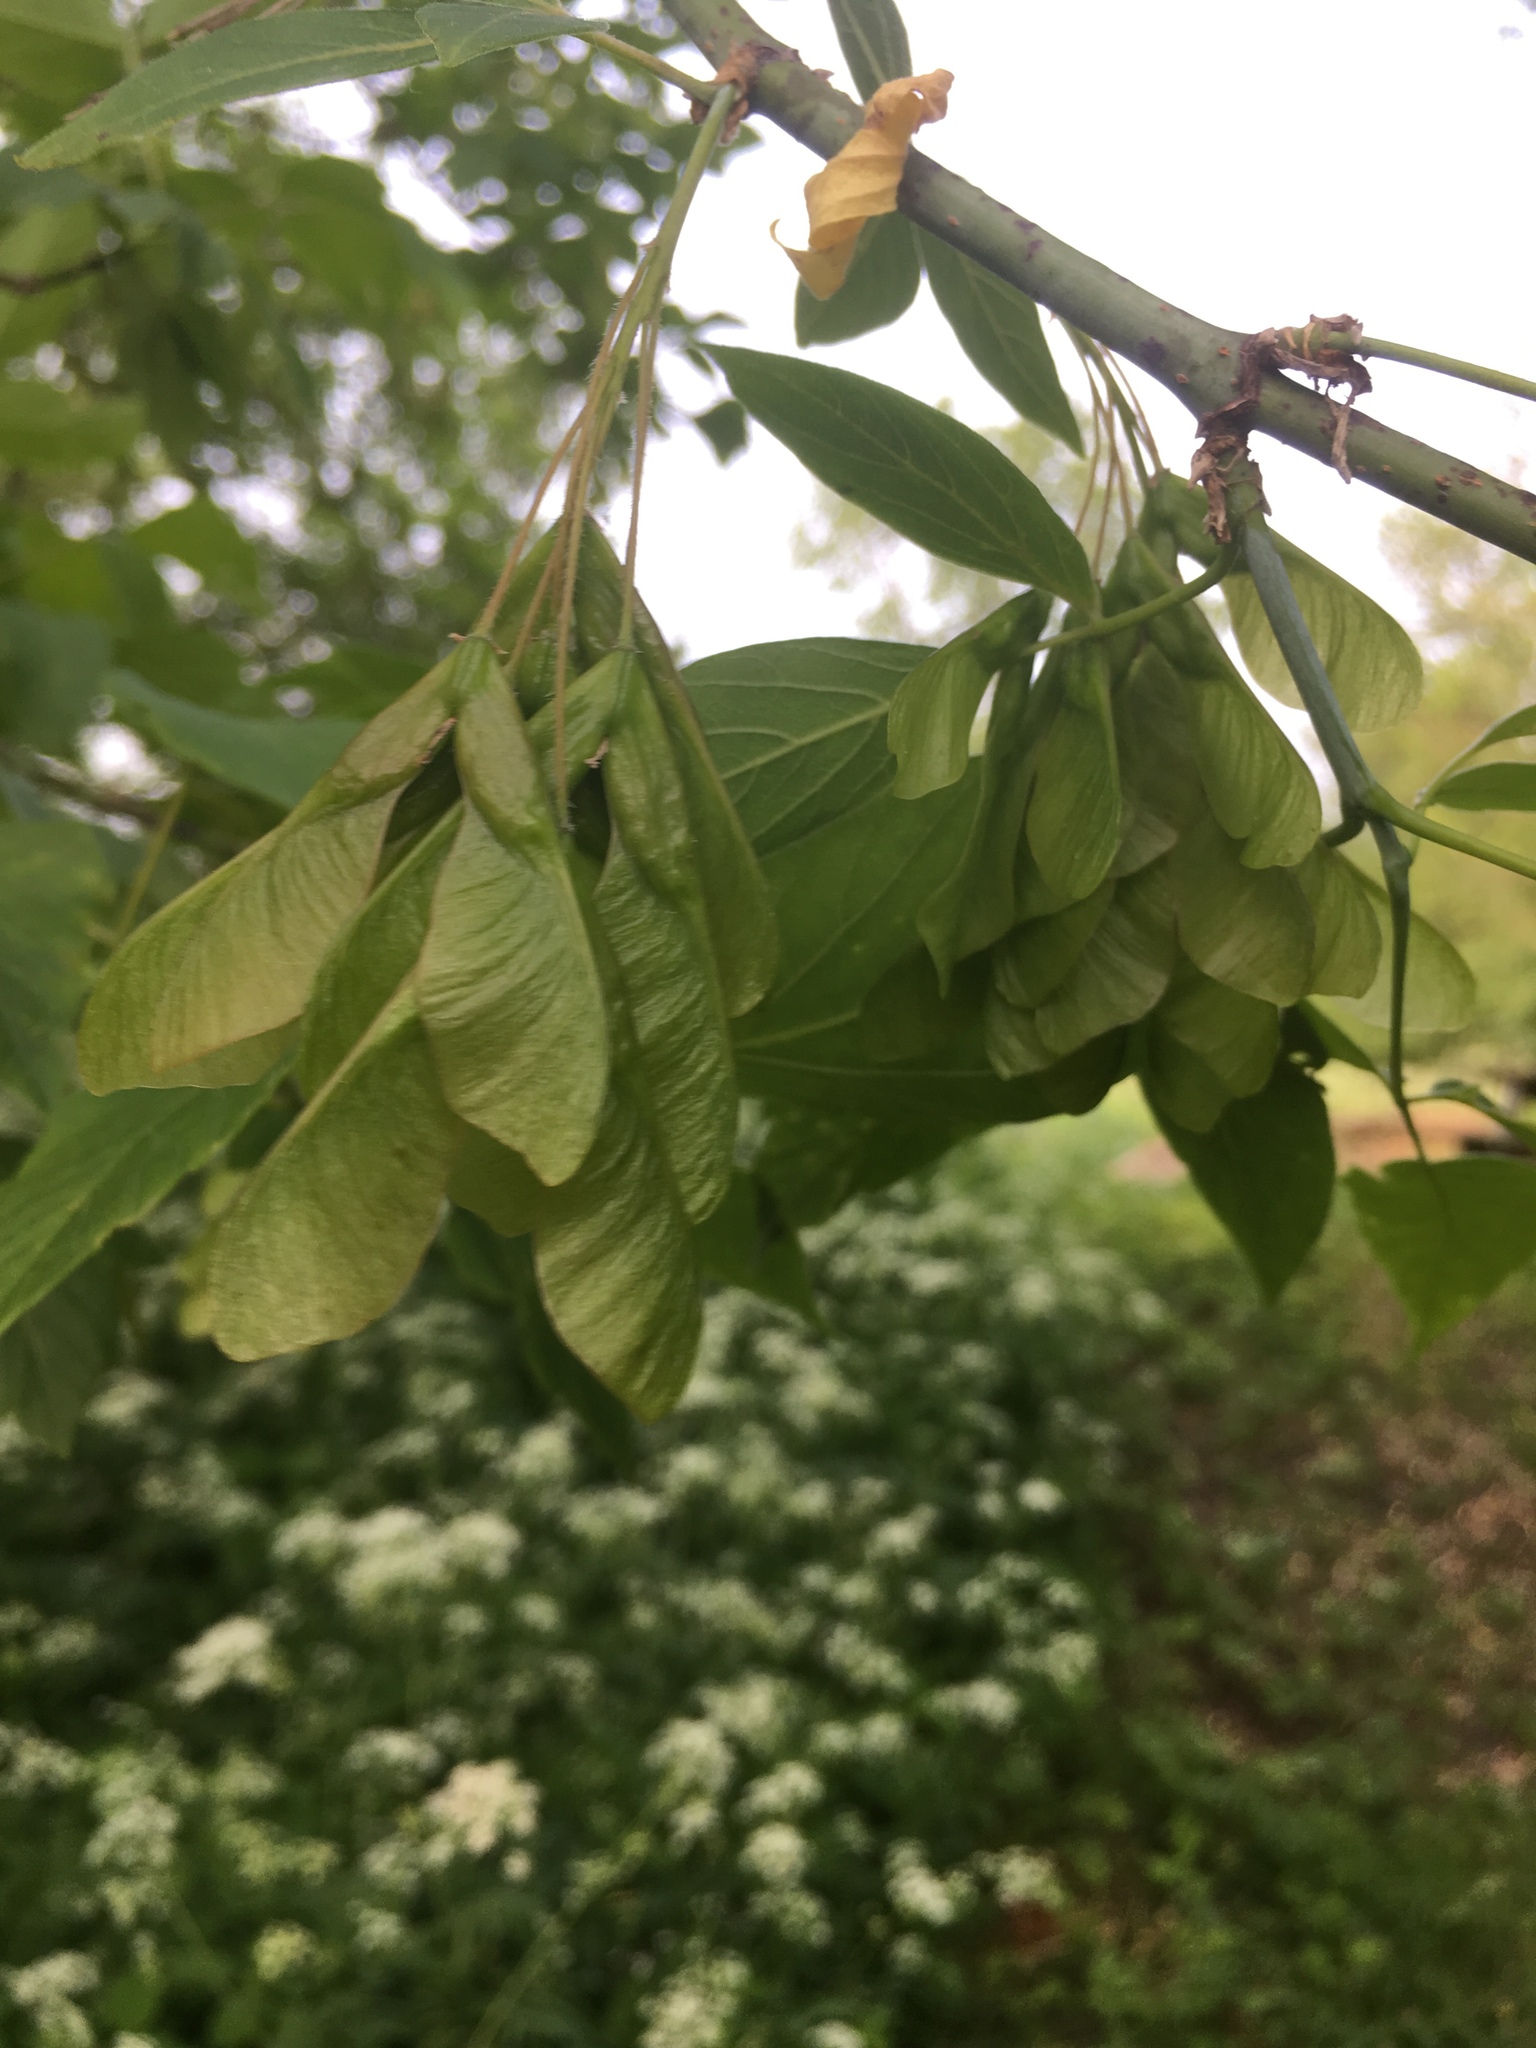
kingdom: Plantae
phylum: Tracheophyta
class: Magnoliopsida
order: Sapindales
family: Sapindaceae
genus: Acer
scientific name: Acer negundo
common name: Ashleaf maple
